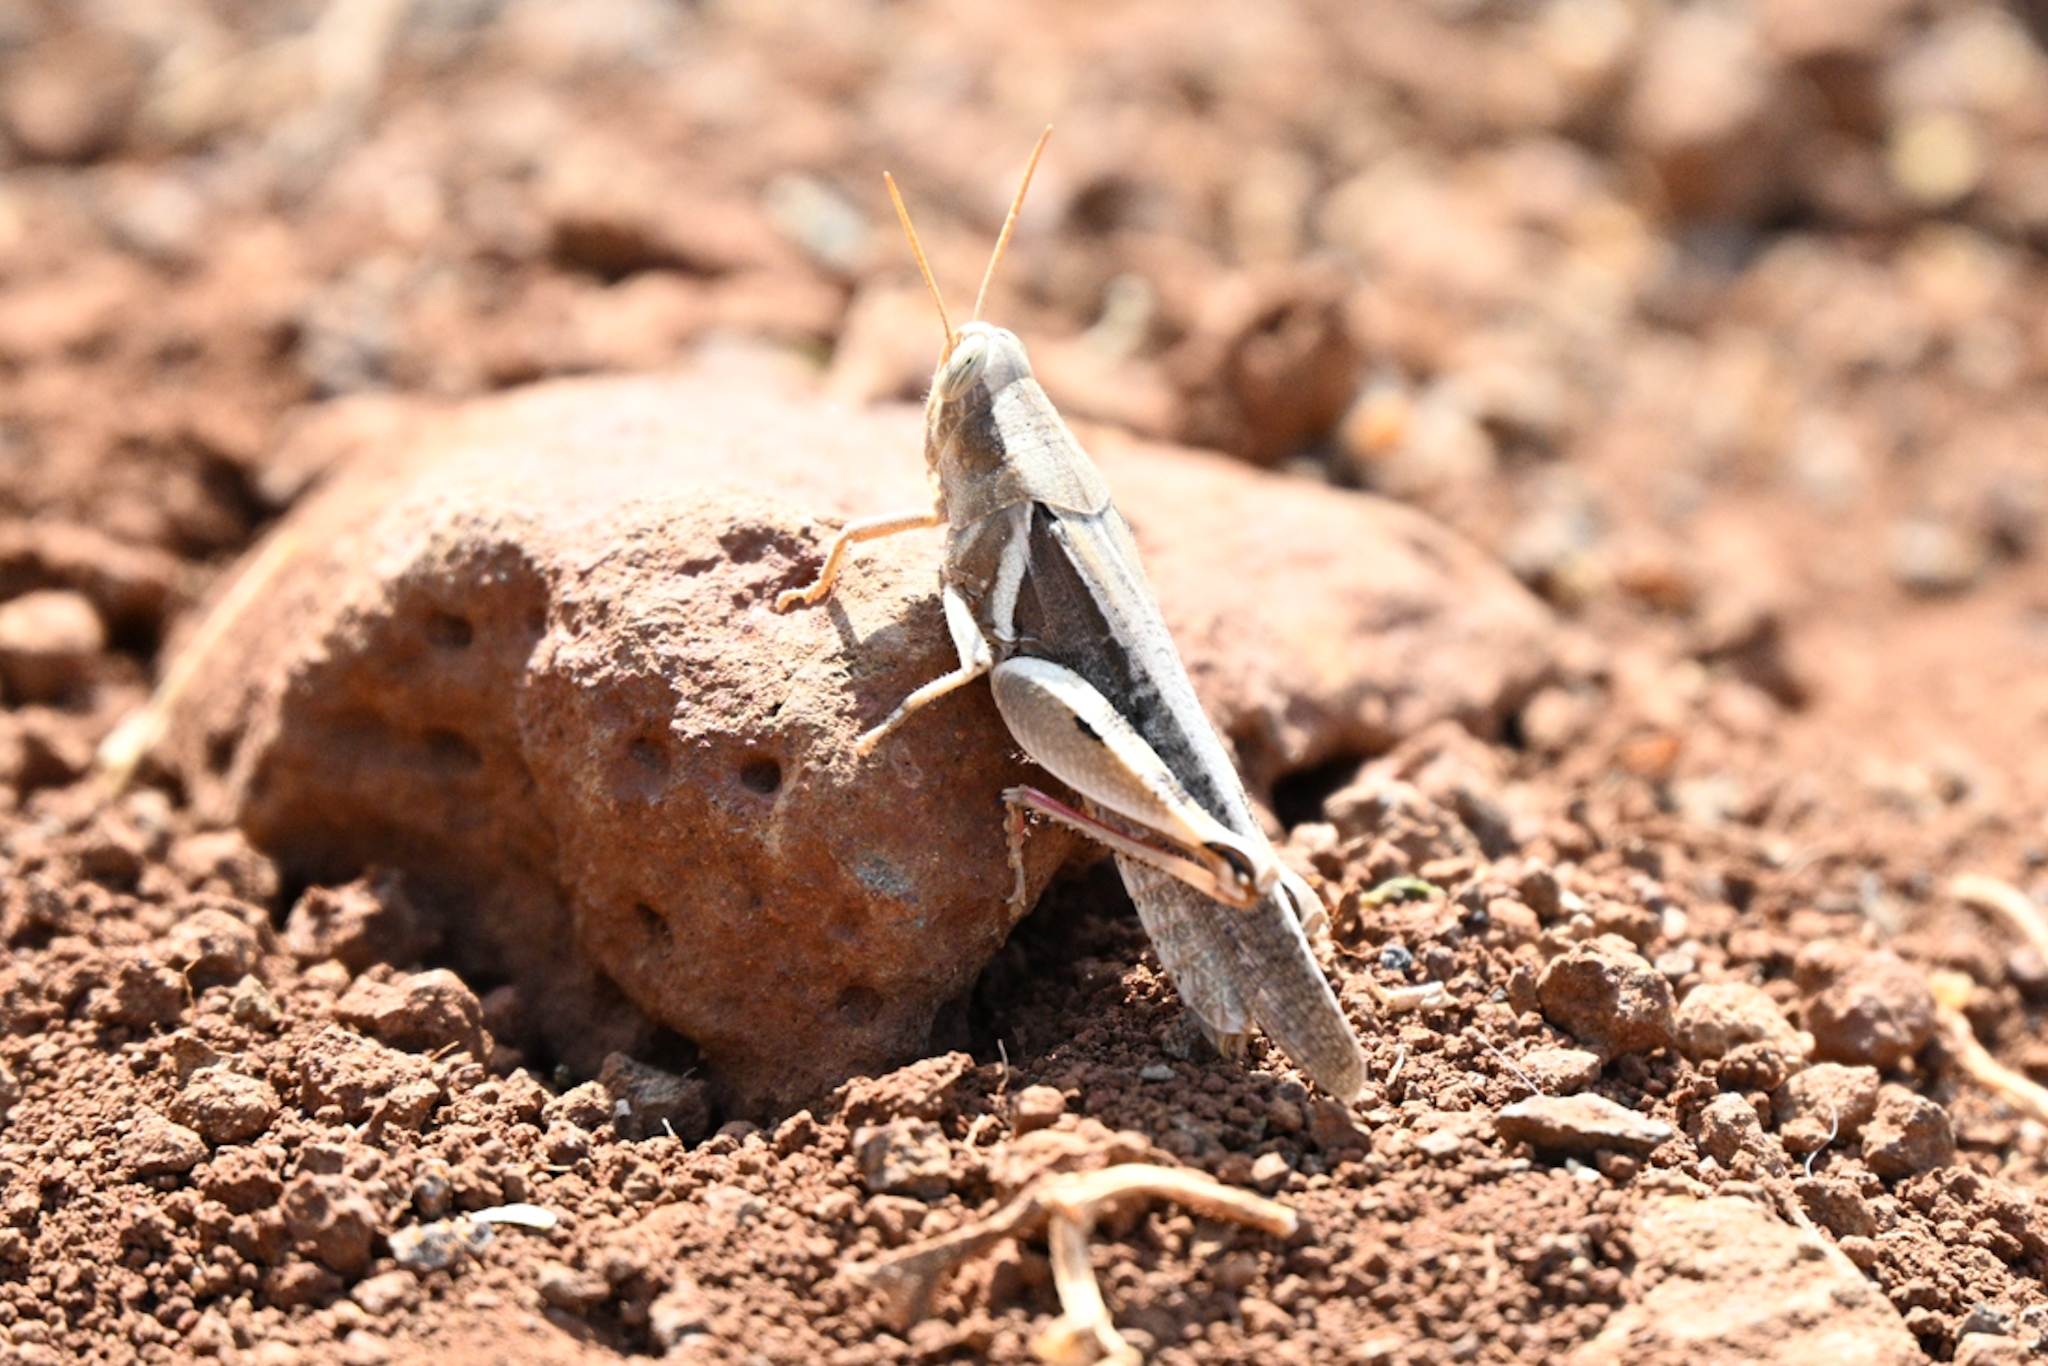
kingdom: Animalia
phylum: Arthropoda
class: Insecta
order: Orthoptera
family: Acrididae
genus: Diabolocatantops
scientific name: Diabolocatantops axillaris
